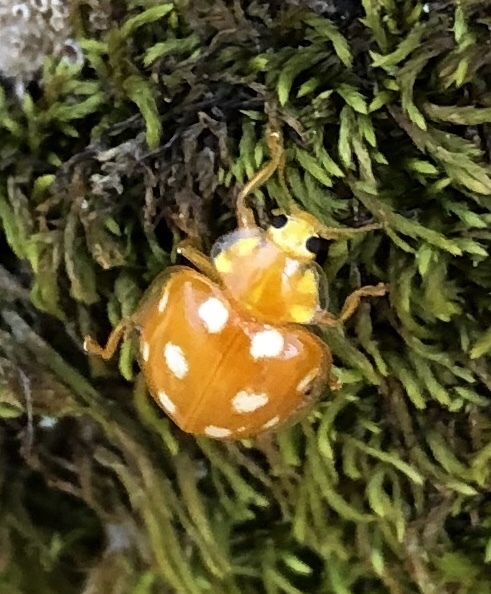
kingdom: Animalia
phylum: Arthropoda
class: Insecta
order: Coleoptera
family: Coccinellidae
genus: Halyzia
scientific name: Halyzia sedecimguttata
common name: Orange ladybird
